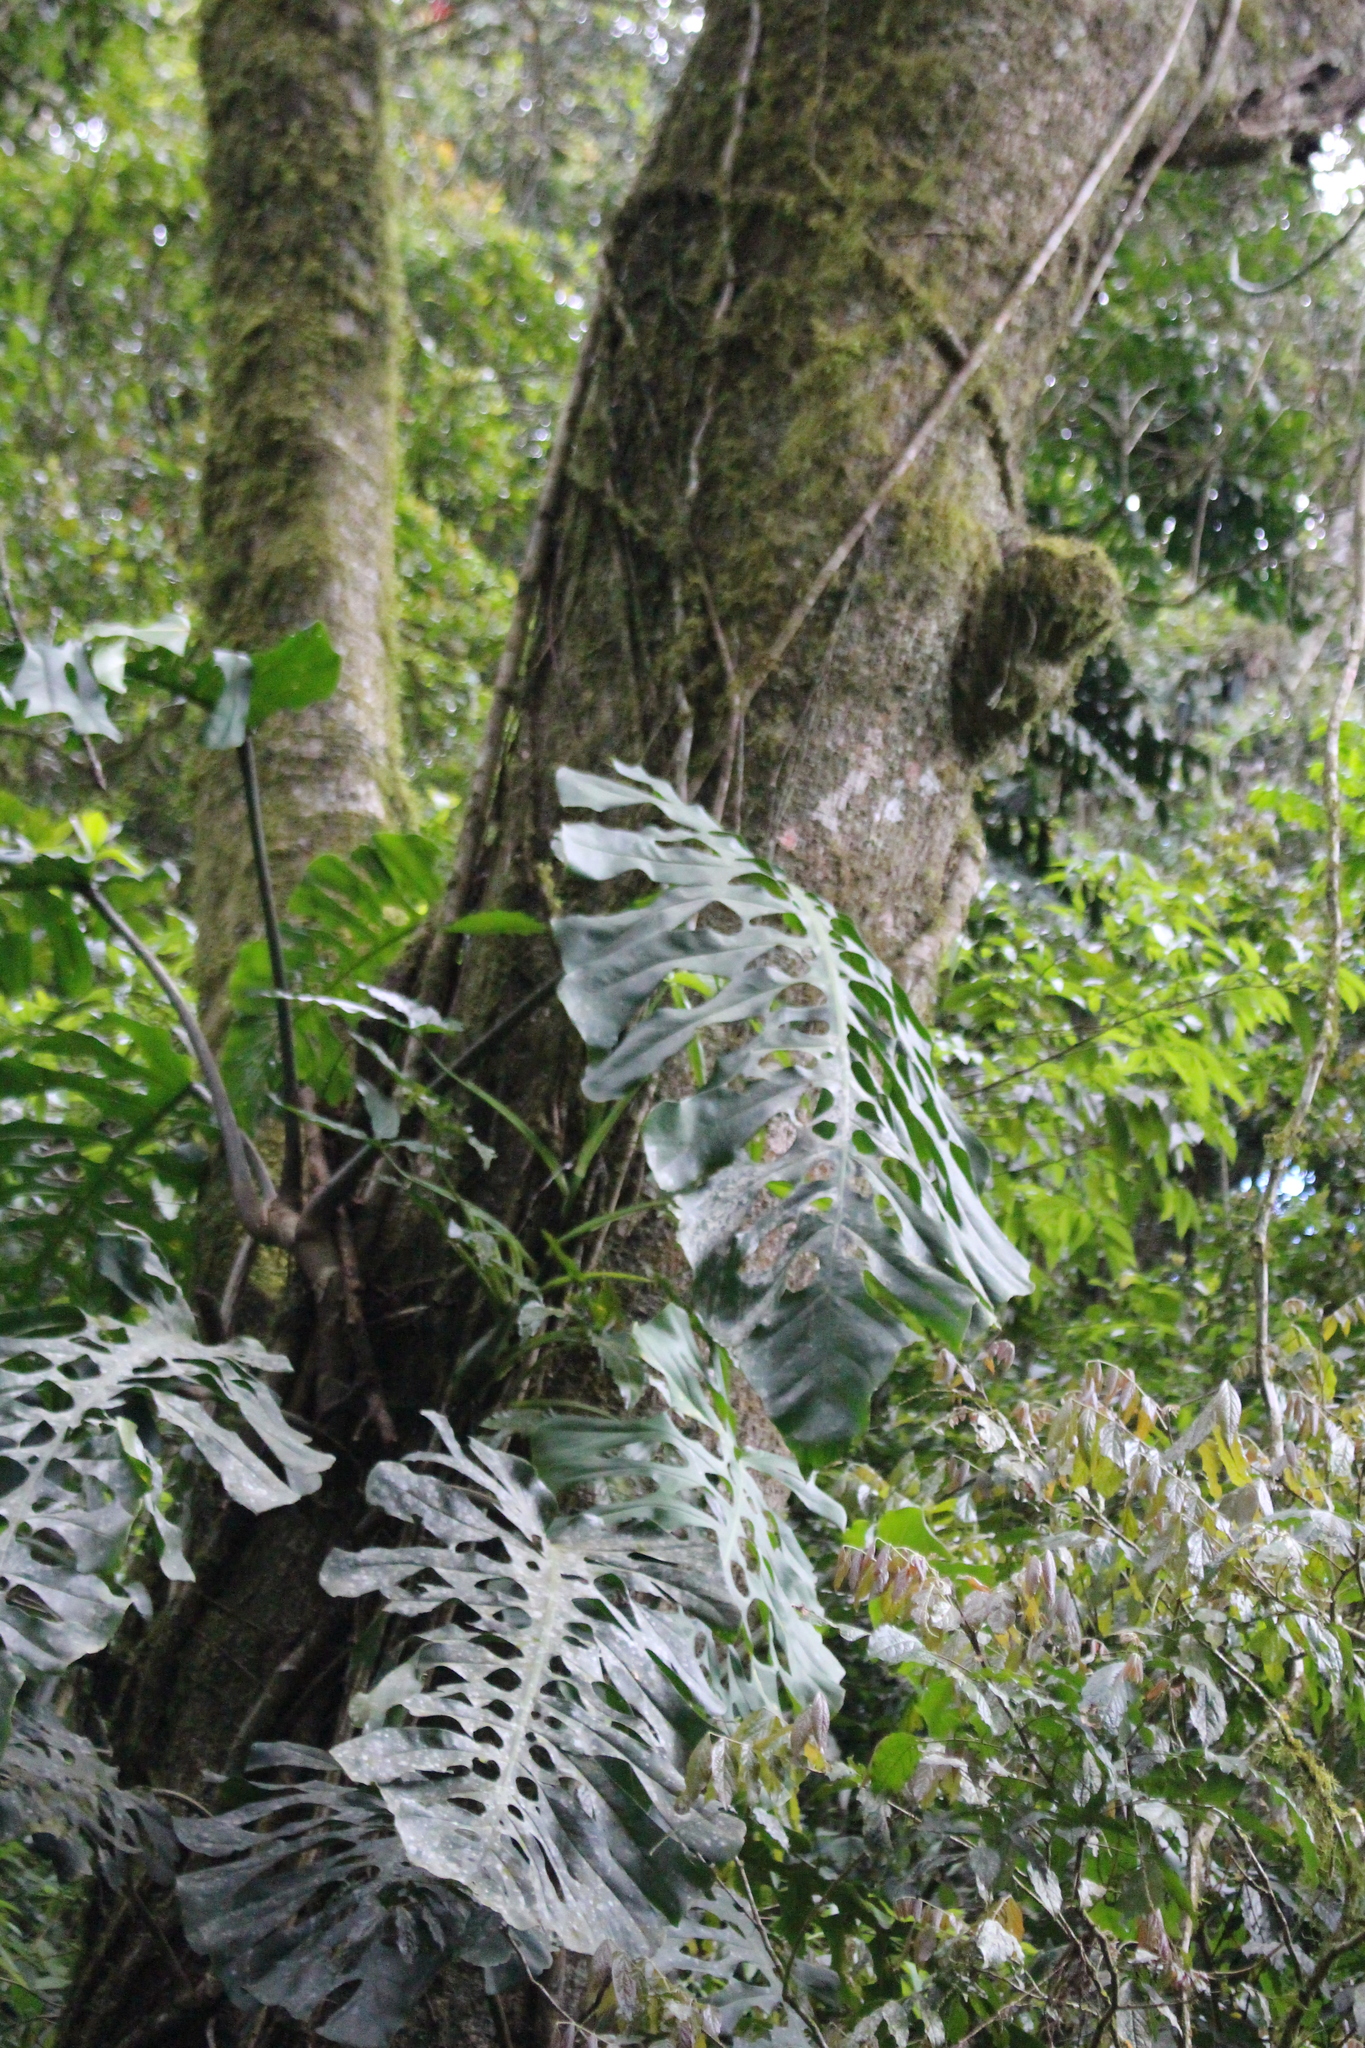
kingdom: Plantae
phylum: Tracheophyta
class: Liliopsida
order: Alismatales
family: Araceae
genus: Monstera
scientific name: Monstera punctulata
